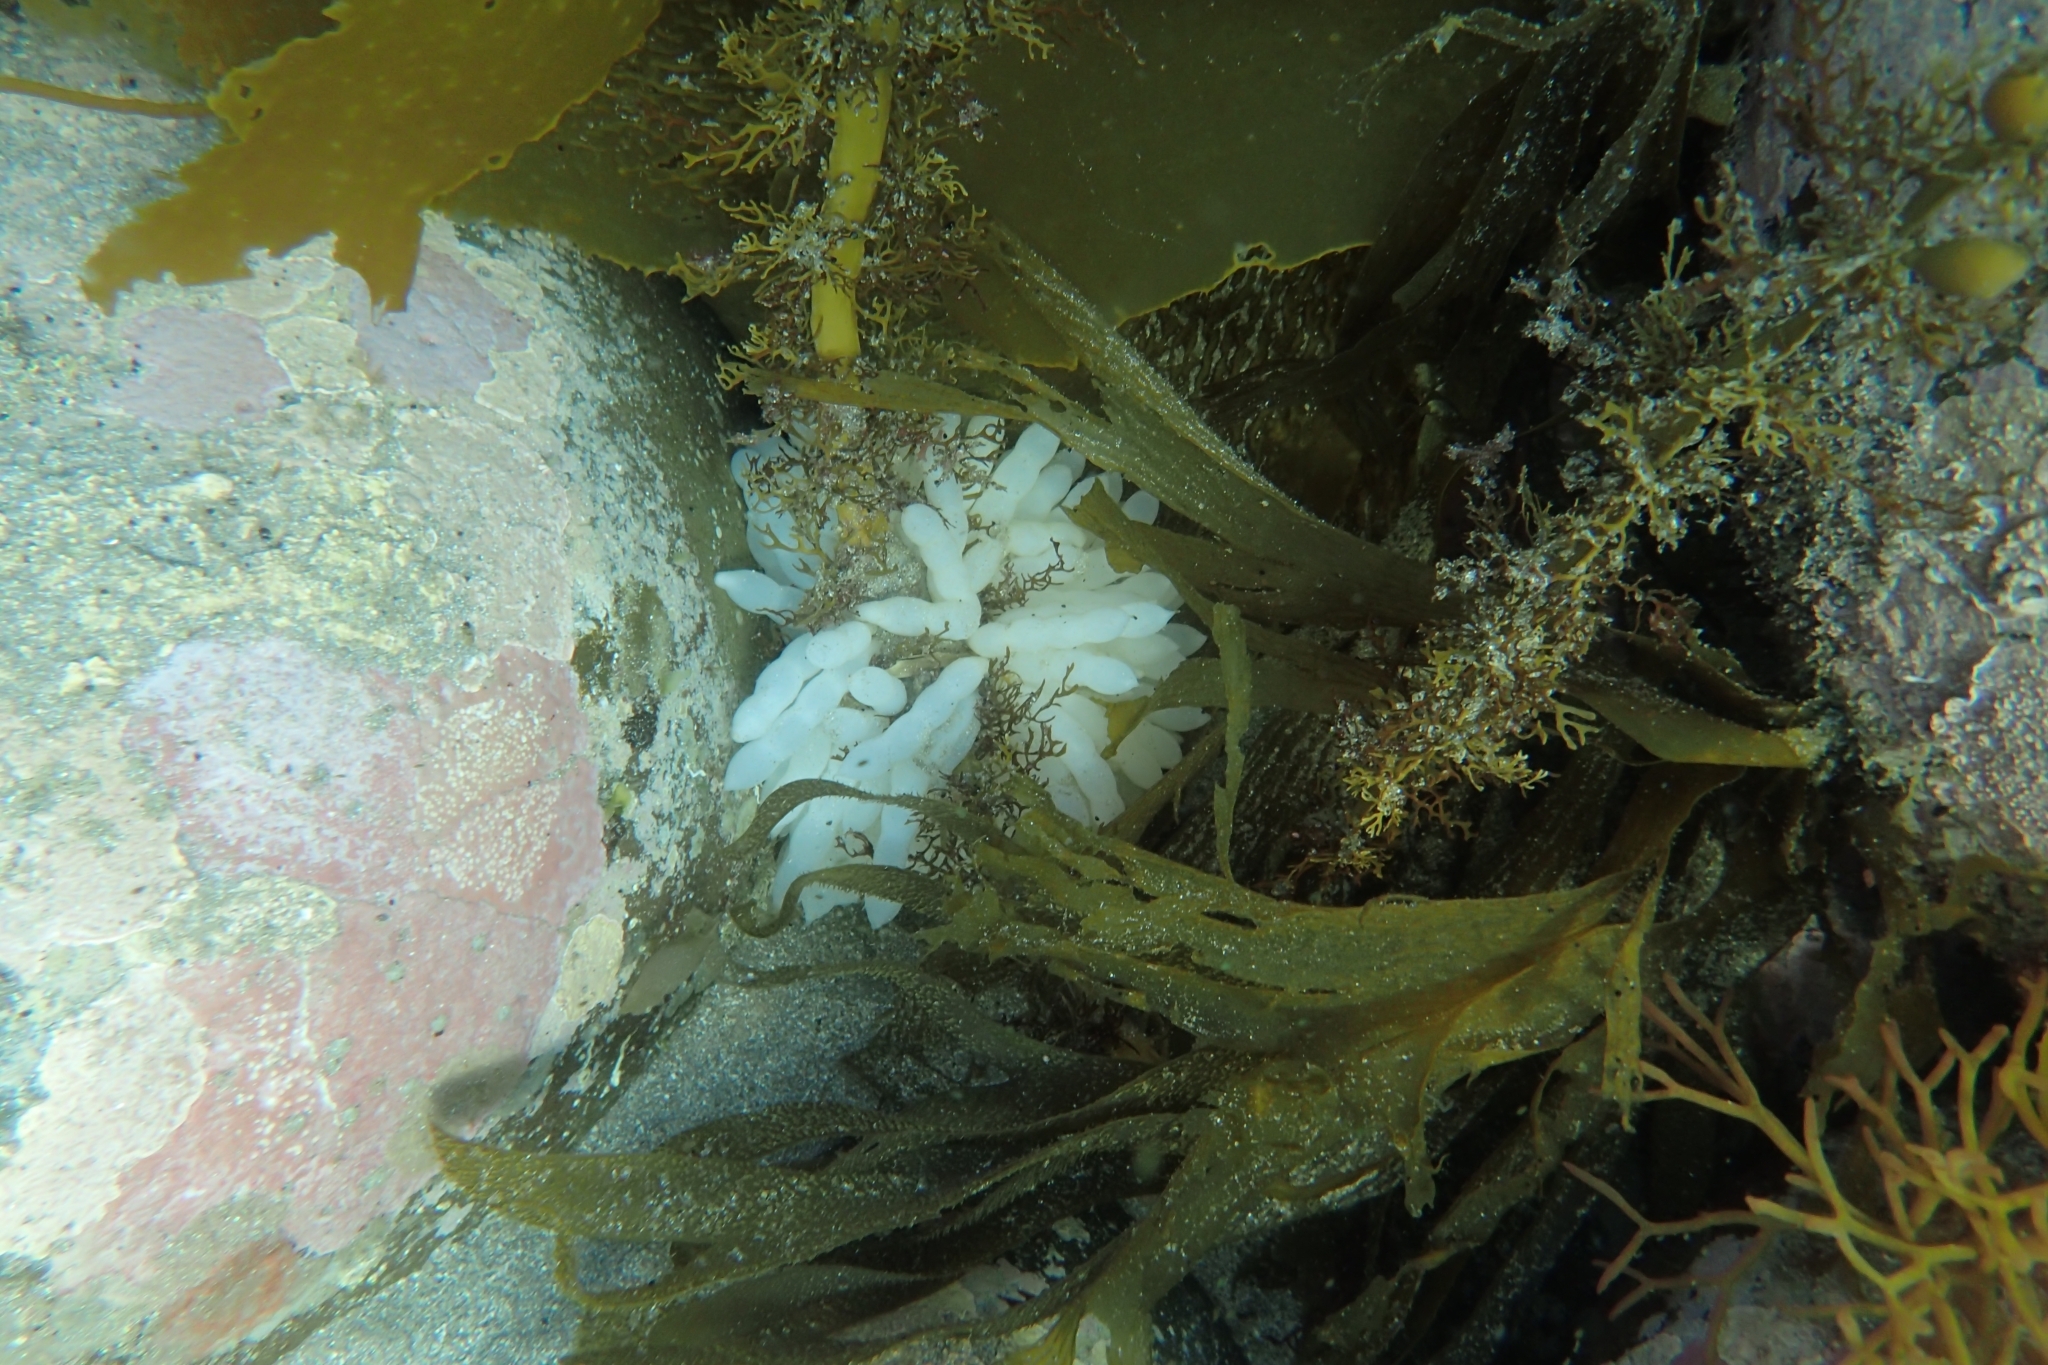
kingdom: Animalia
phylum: Mollusca
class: Cephalopoda
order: Myopsida
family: Loliginidae
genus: Sepioteuthis
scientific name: Sepioteuthis australis
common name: Southern reef squid
